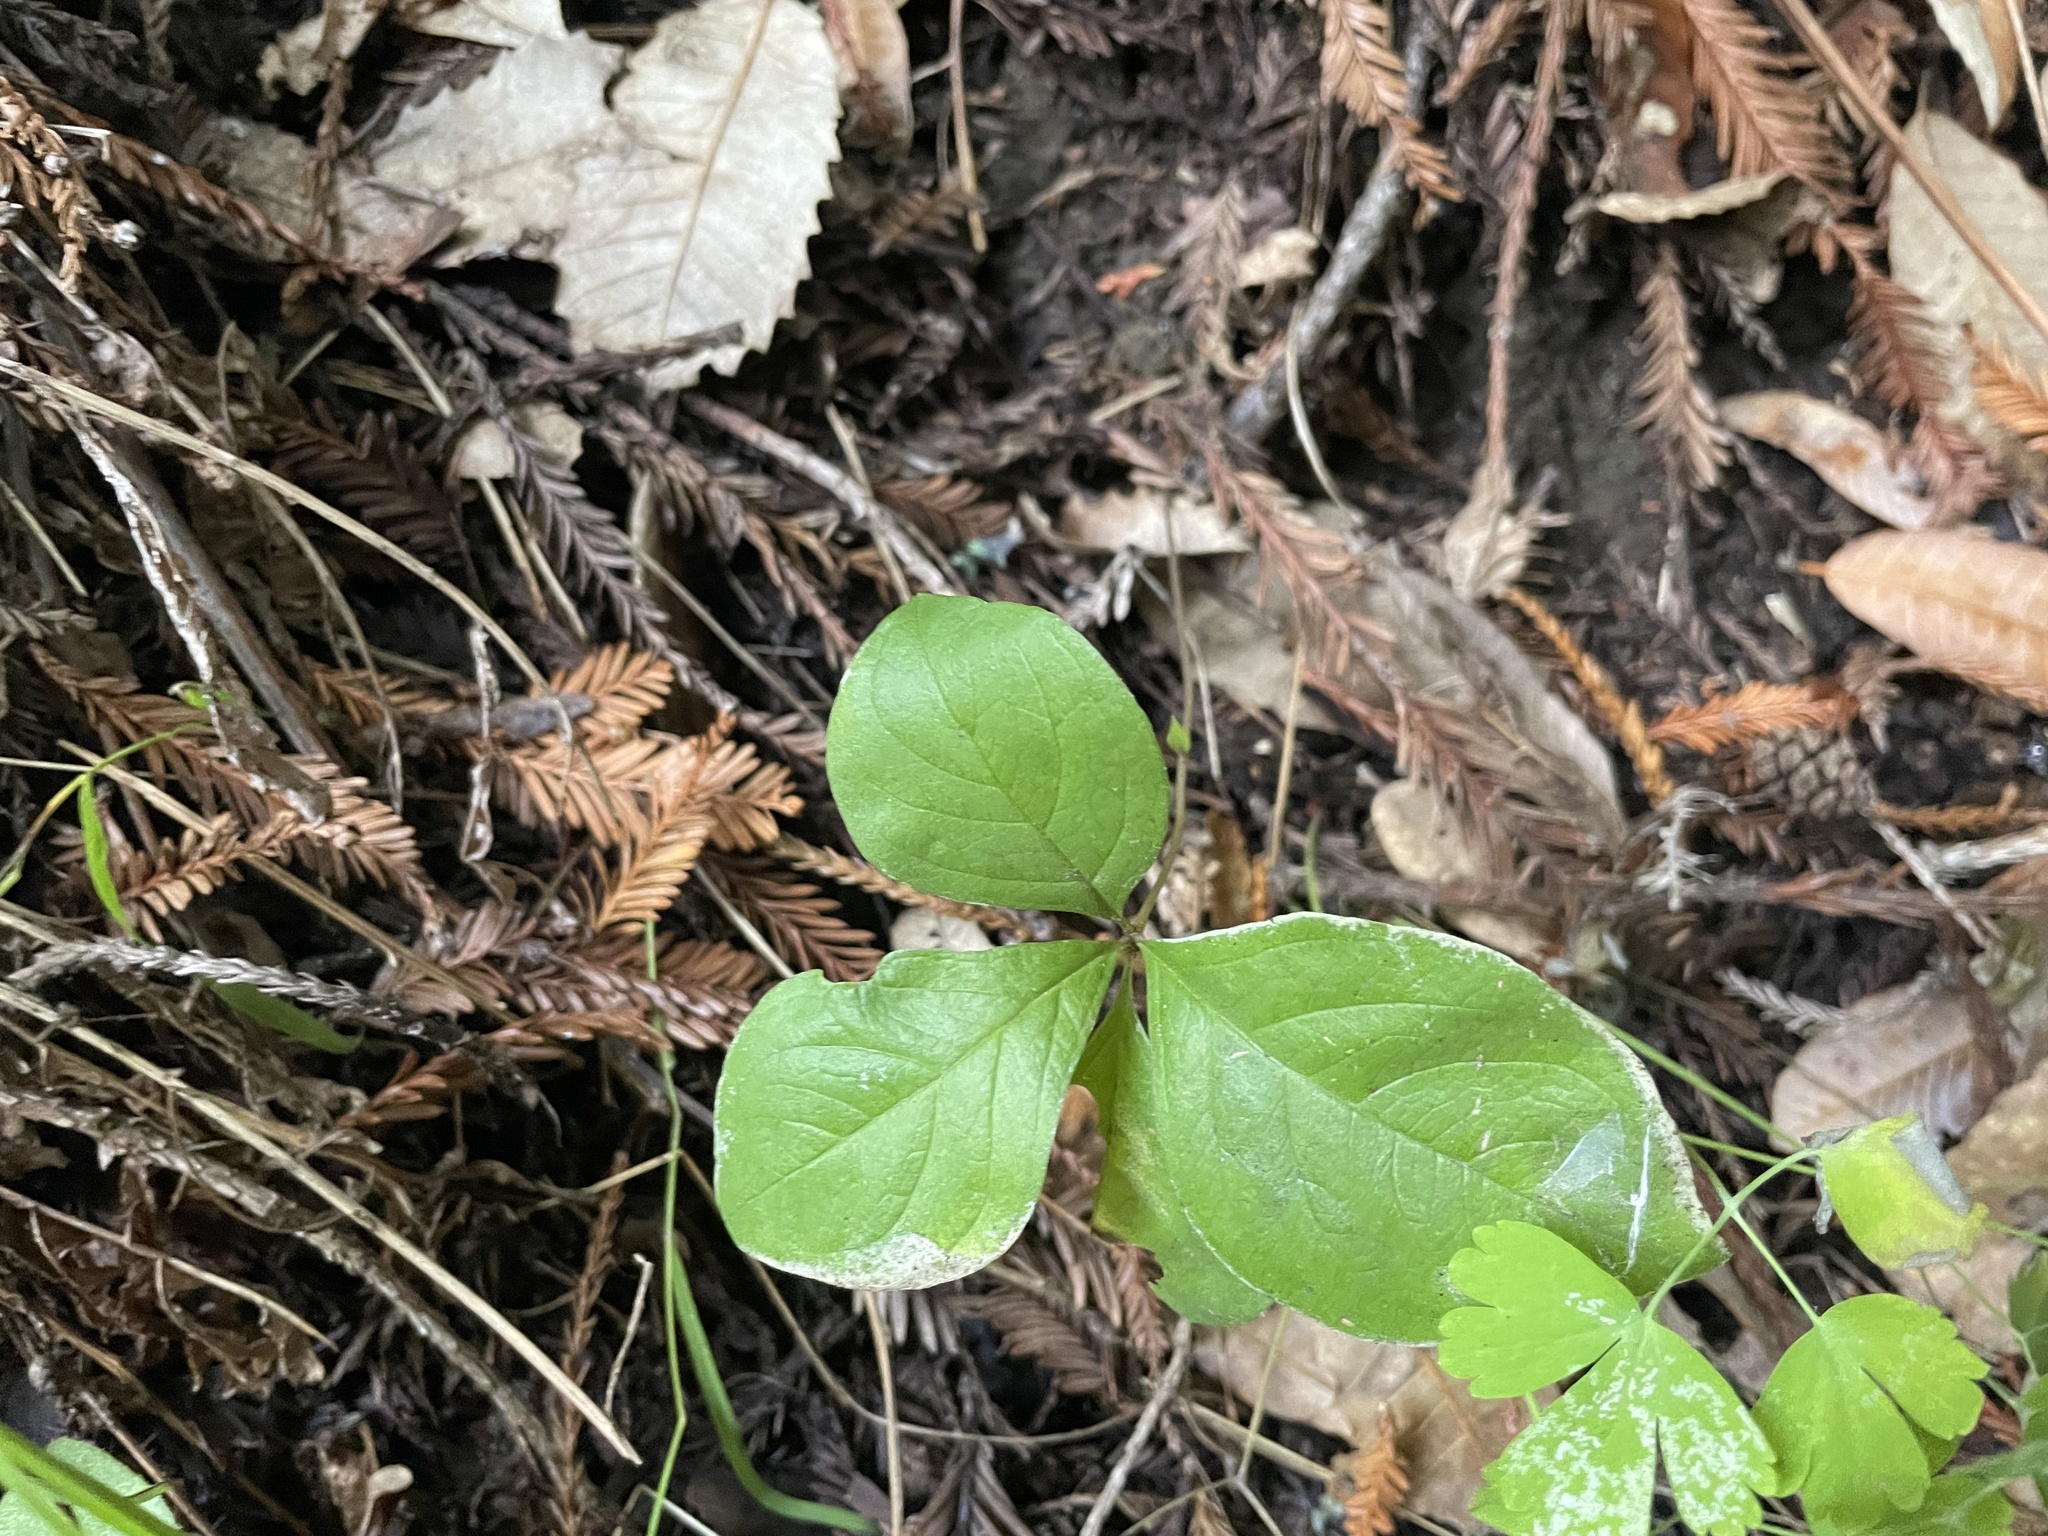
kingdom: Plantae
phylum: Tracheophyta
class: Magnoliopsida
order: Ericales
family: Primulaceae
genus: Lysimachia
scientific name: Lysimachia latifolia
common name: Pacific starflower
